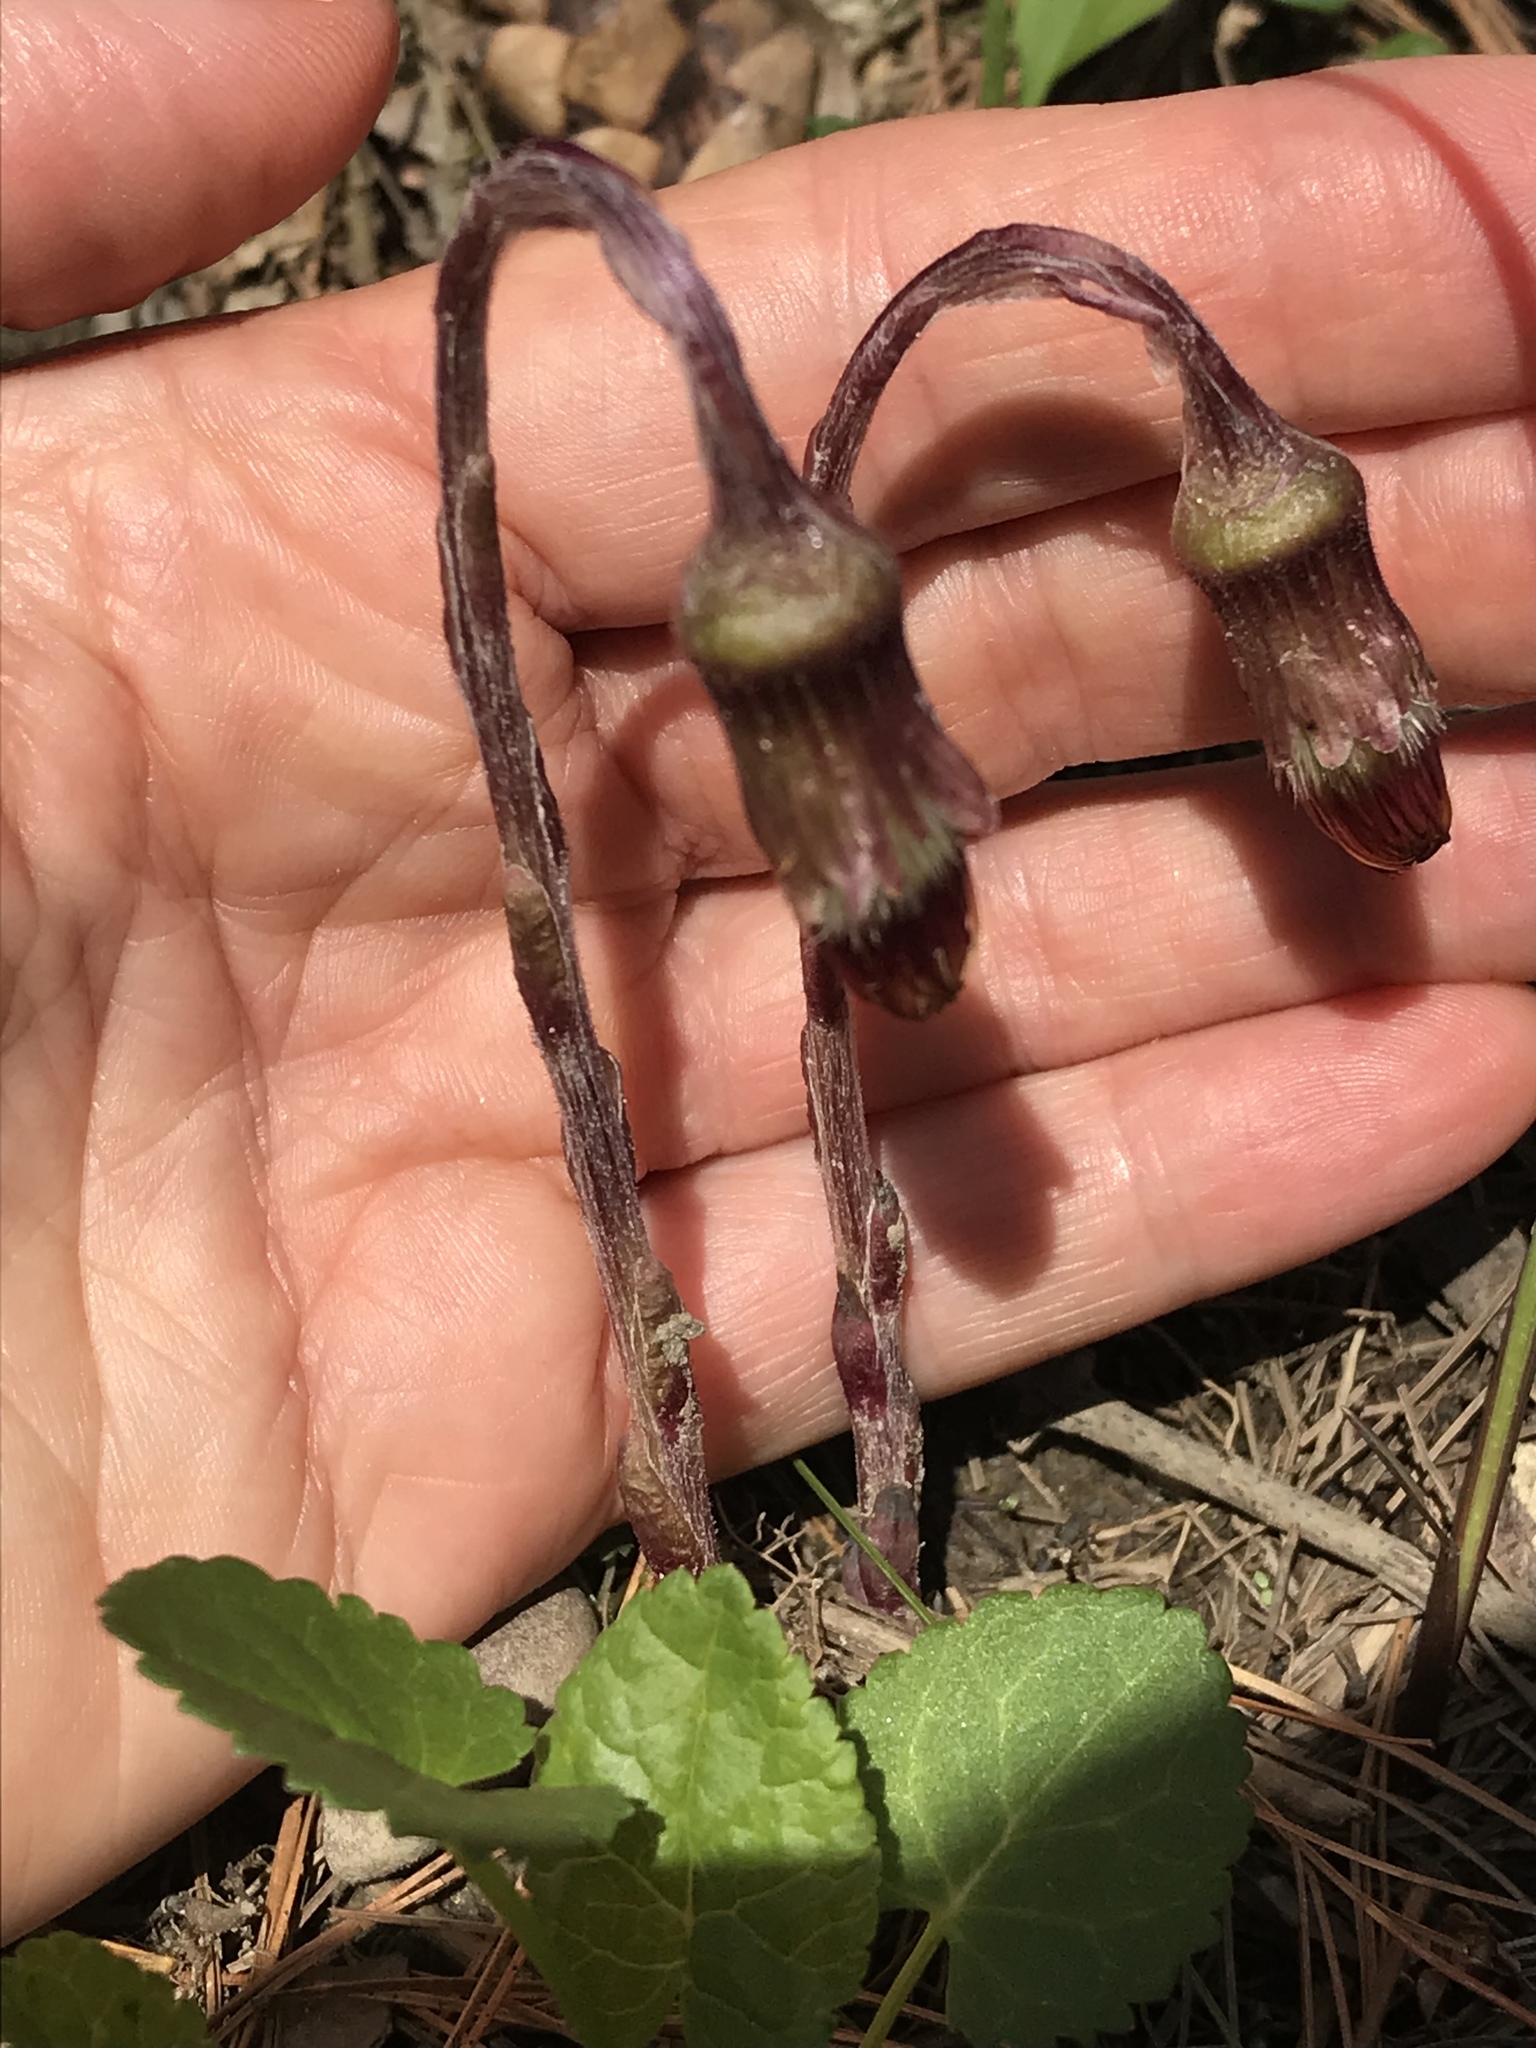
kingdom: Plantae
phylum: Tracheophyta
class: Magnoliopsida
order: Asterales
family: Asteraceae
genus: Tussilago
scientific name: Tussilago farfara
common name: Coltsfoot
